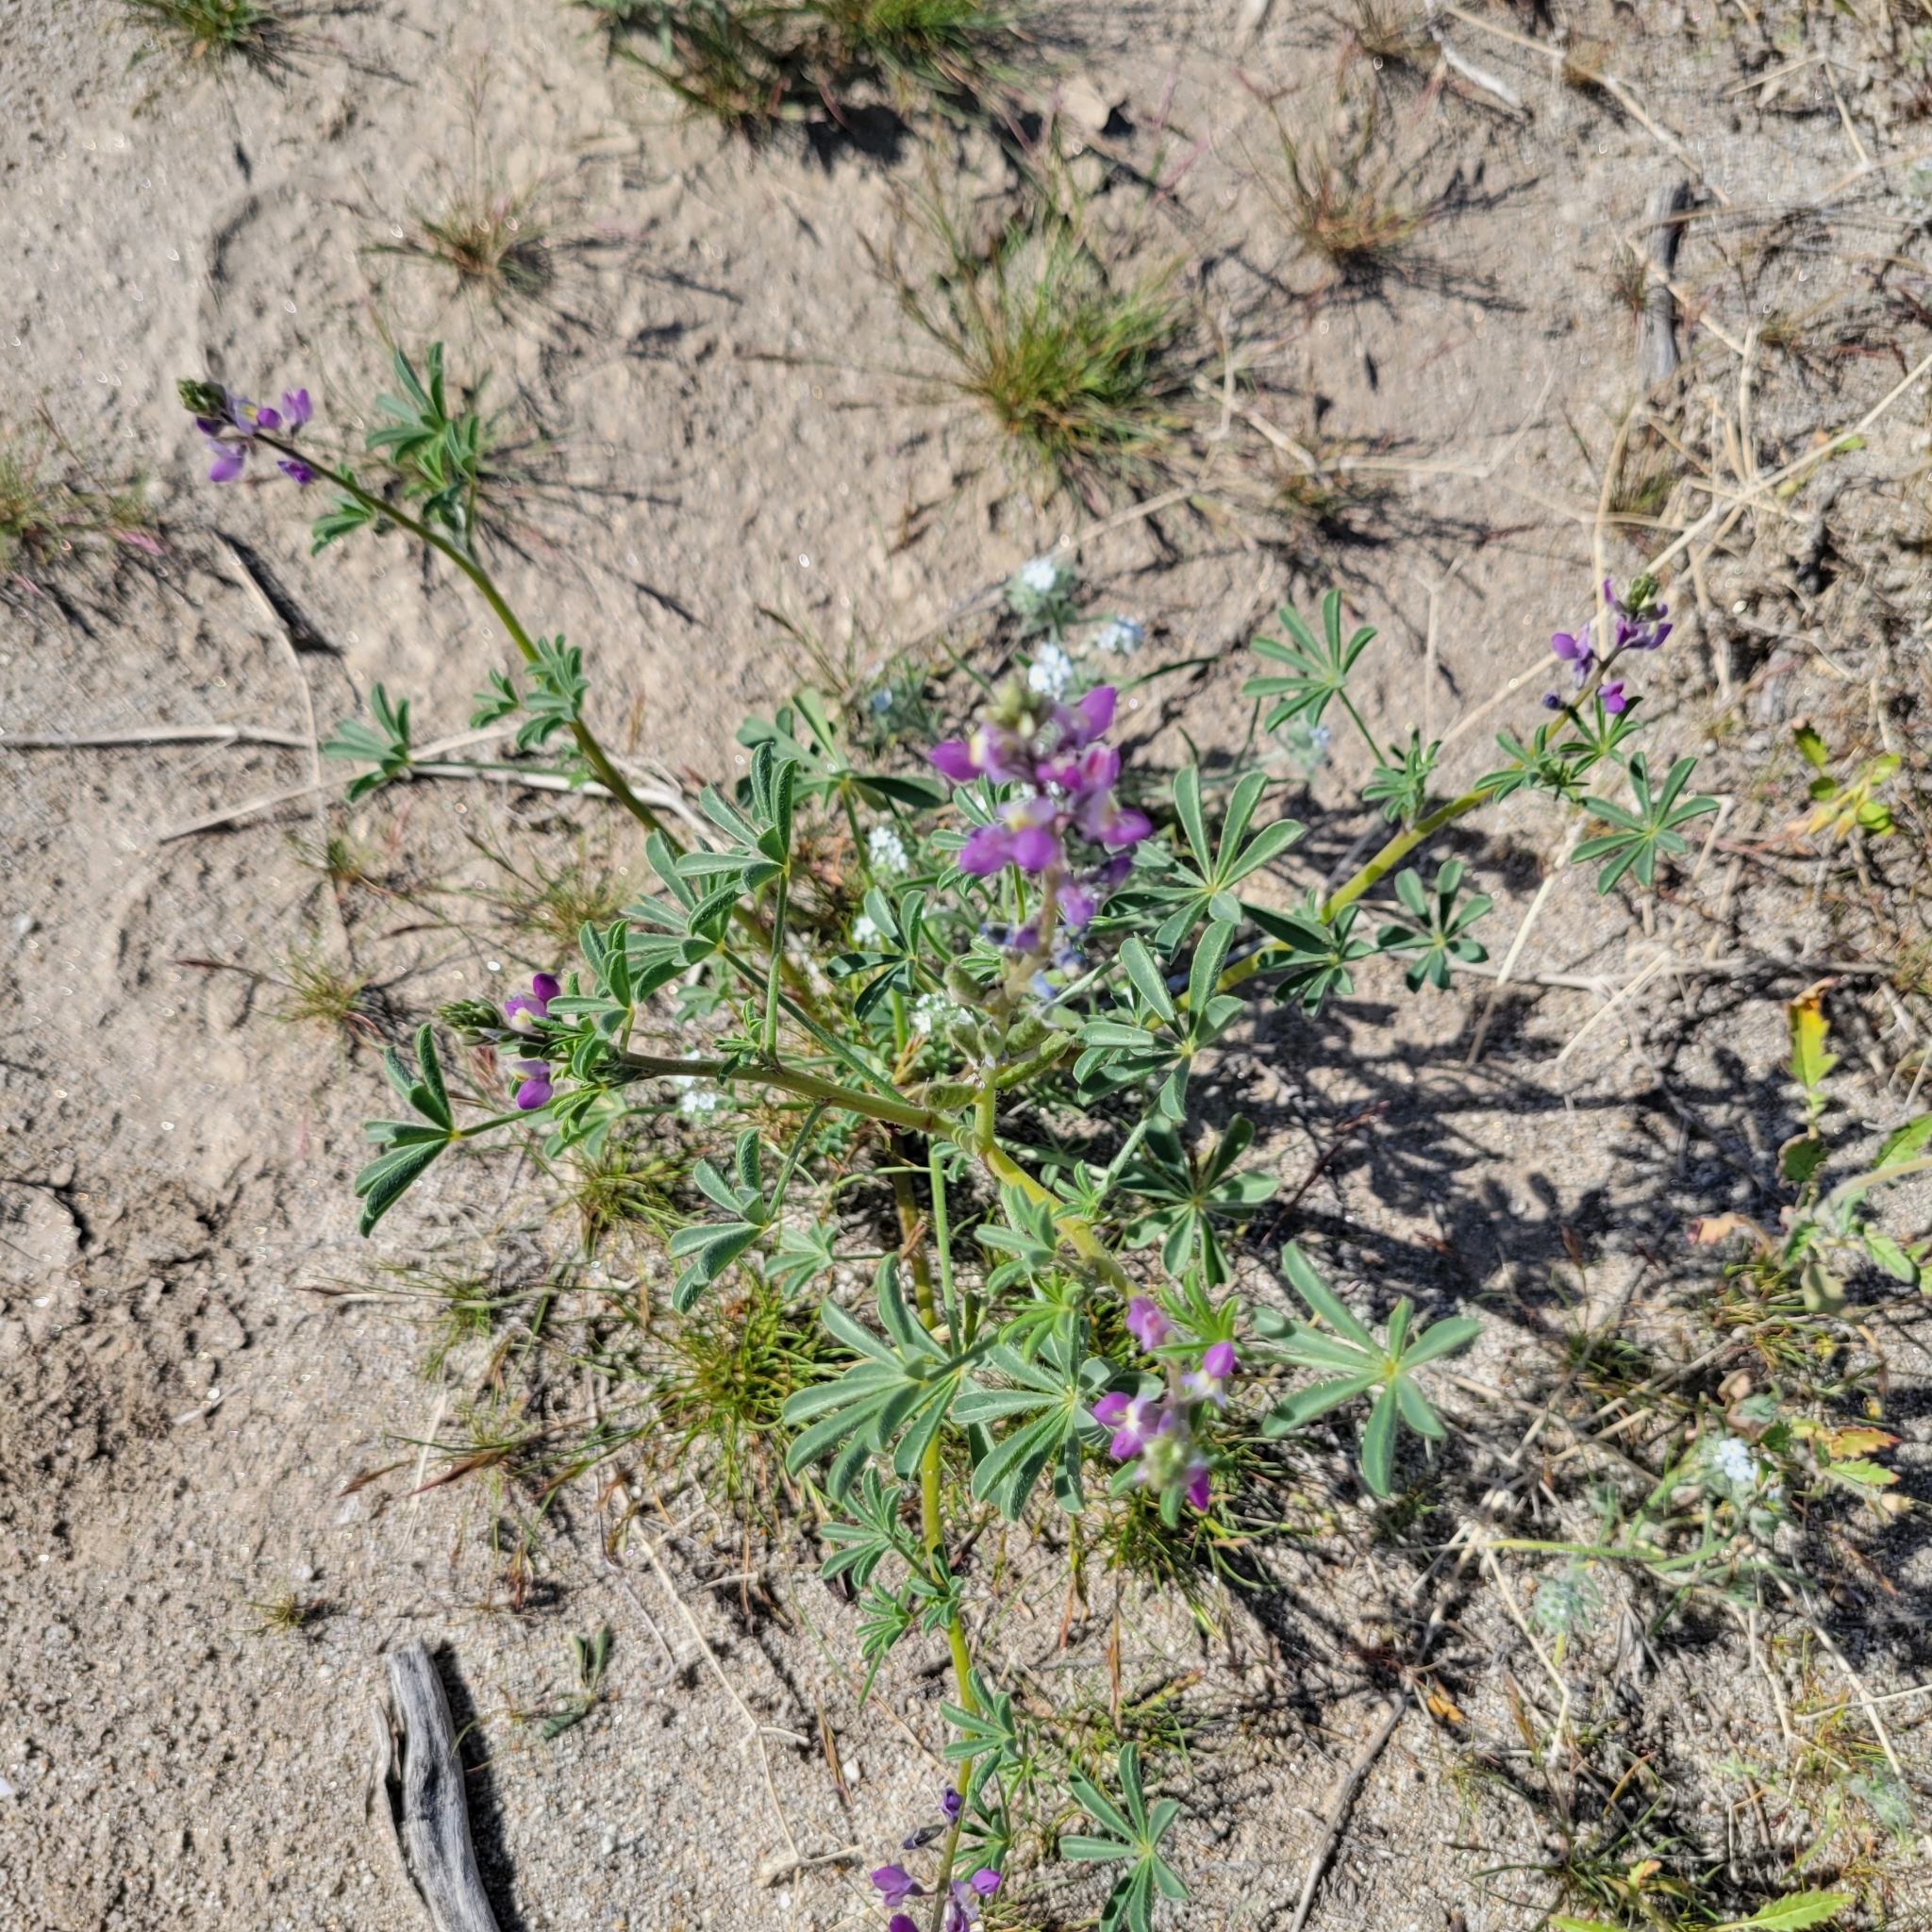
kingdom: Plantae
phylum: Tracheophyta
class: Magnoliopsida
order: Fabales
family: Fabaceae
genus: Lupinus
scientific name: Lupinus arizonicus
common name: Arizona lupine
